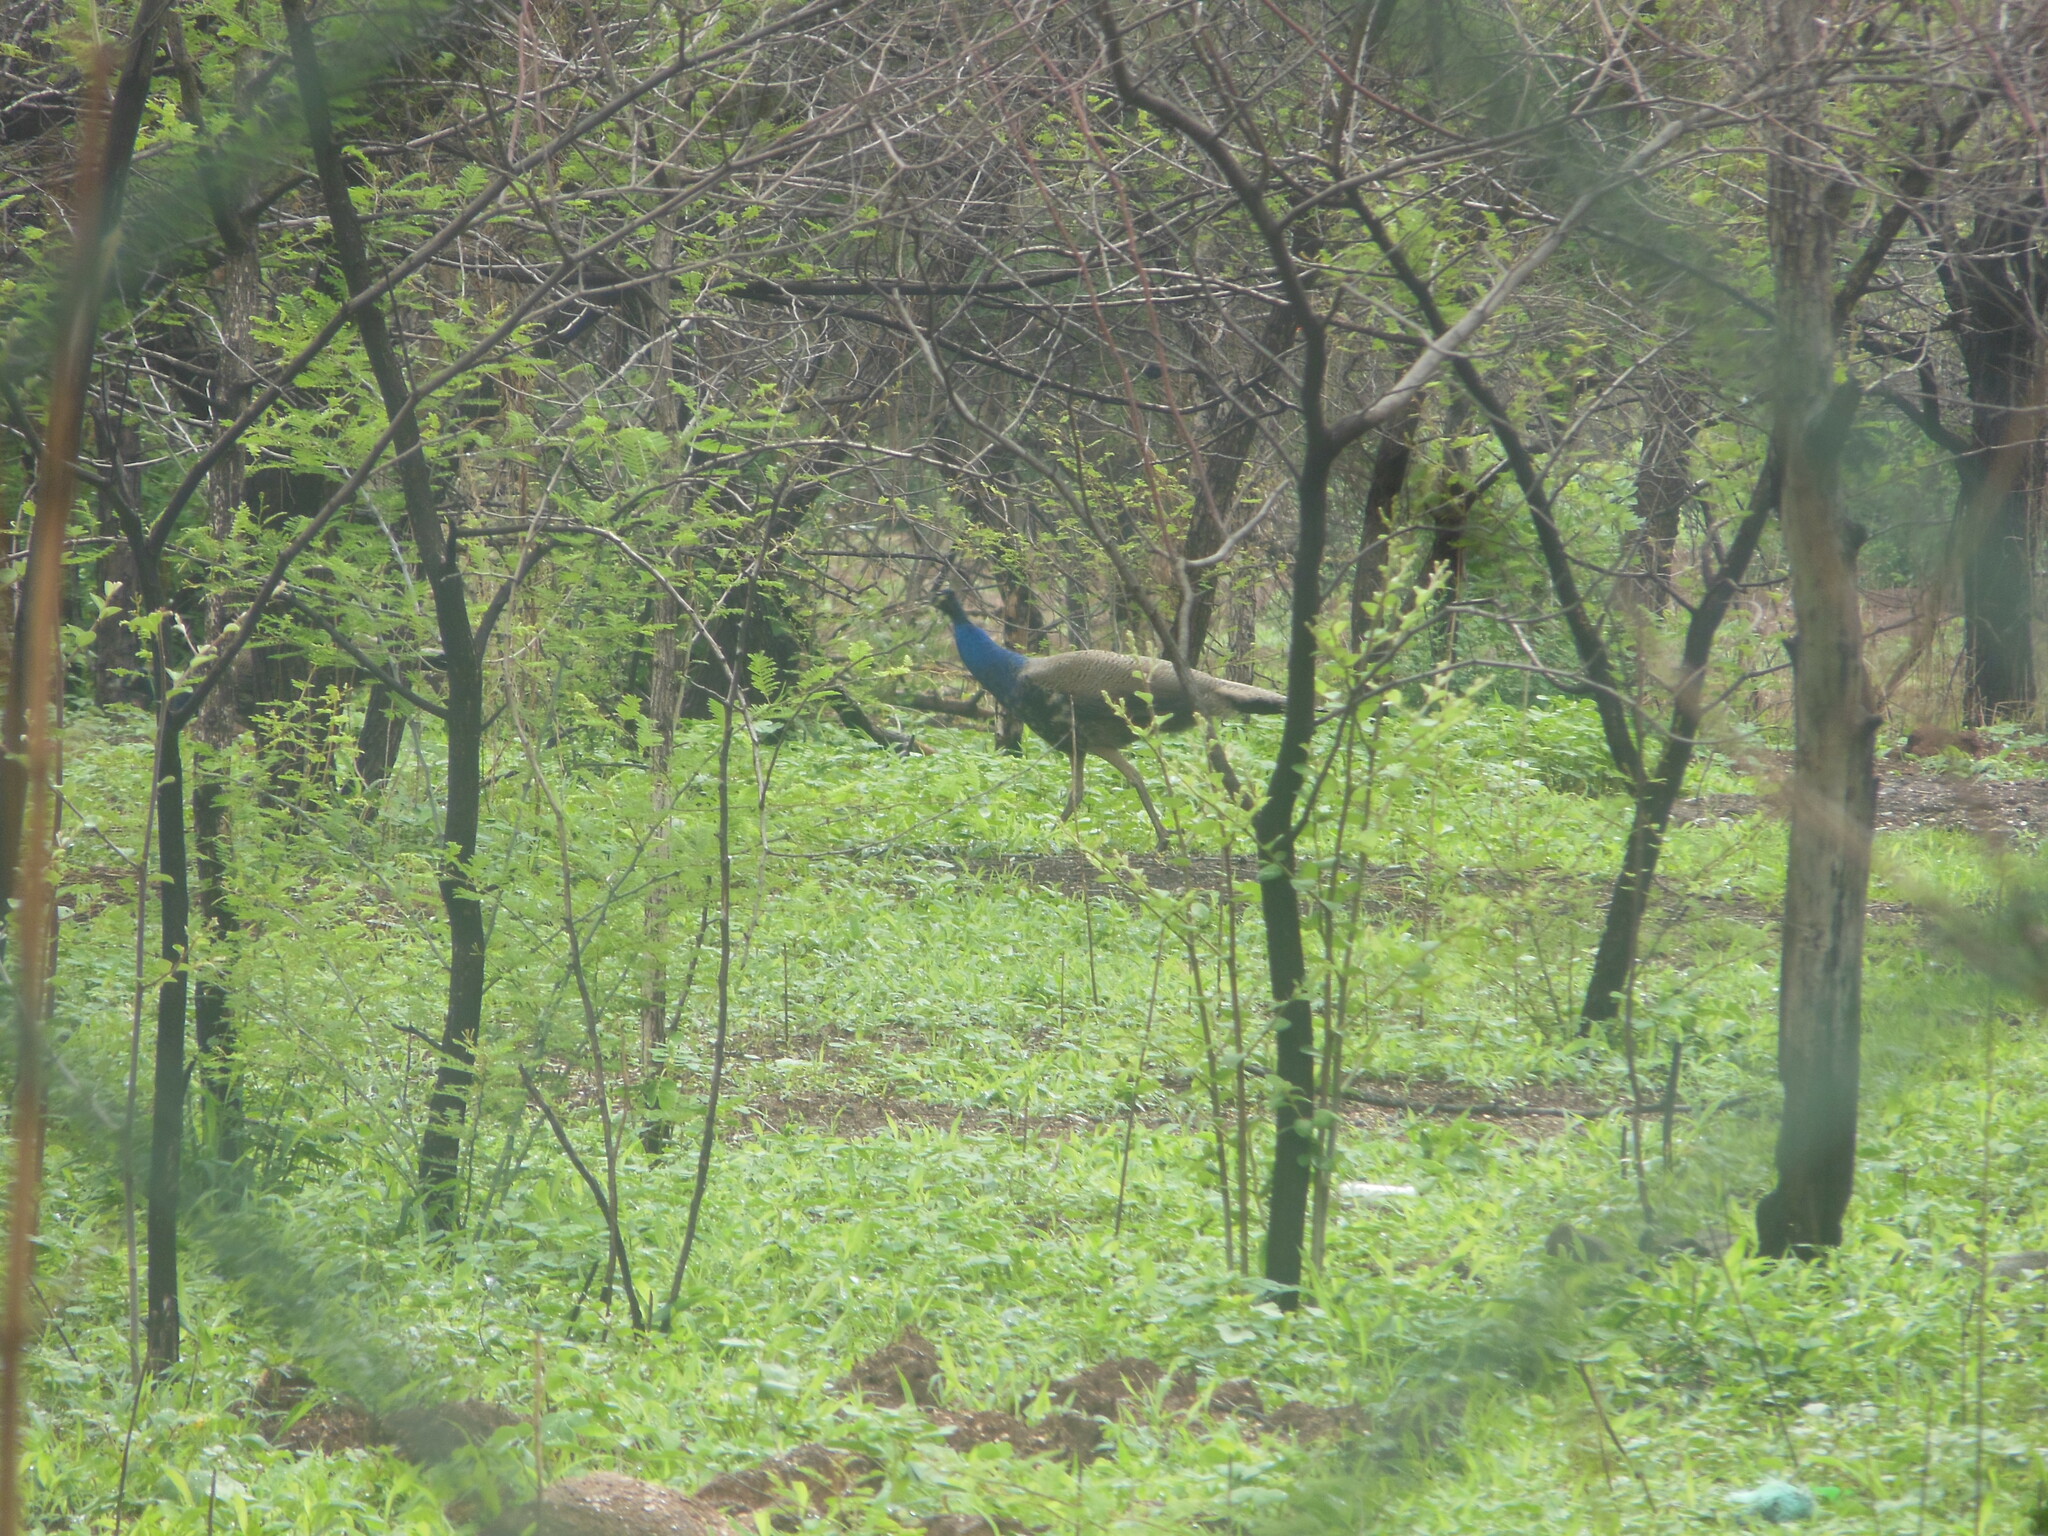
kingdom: Animalia
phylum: Chordata
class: Aves
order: Galliformes
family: Phasianidae
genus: Pavo
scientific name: Pavo cristatus
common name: Indian peafowl
